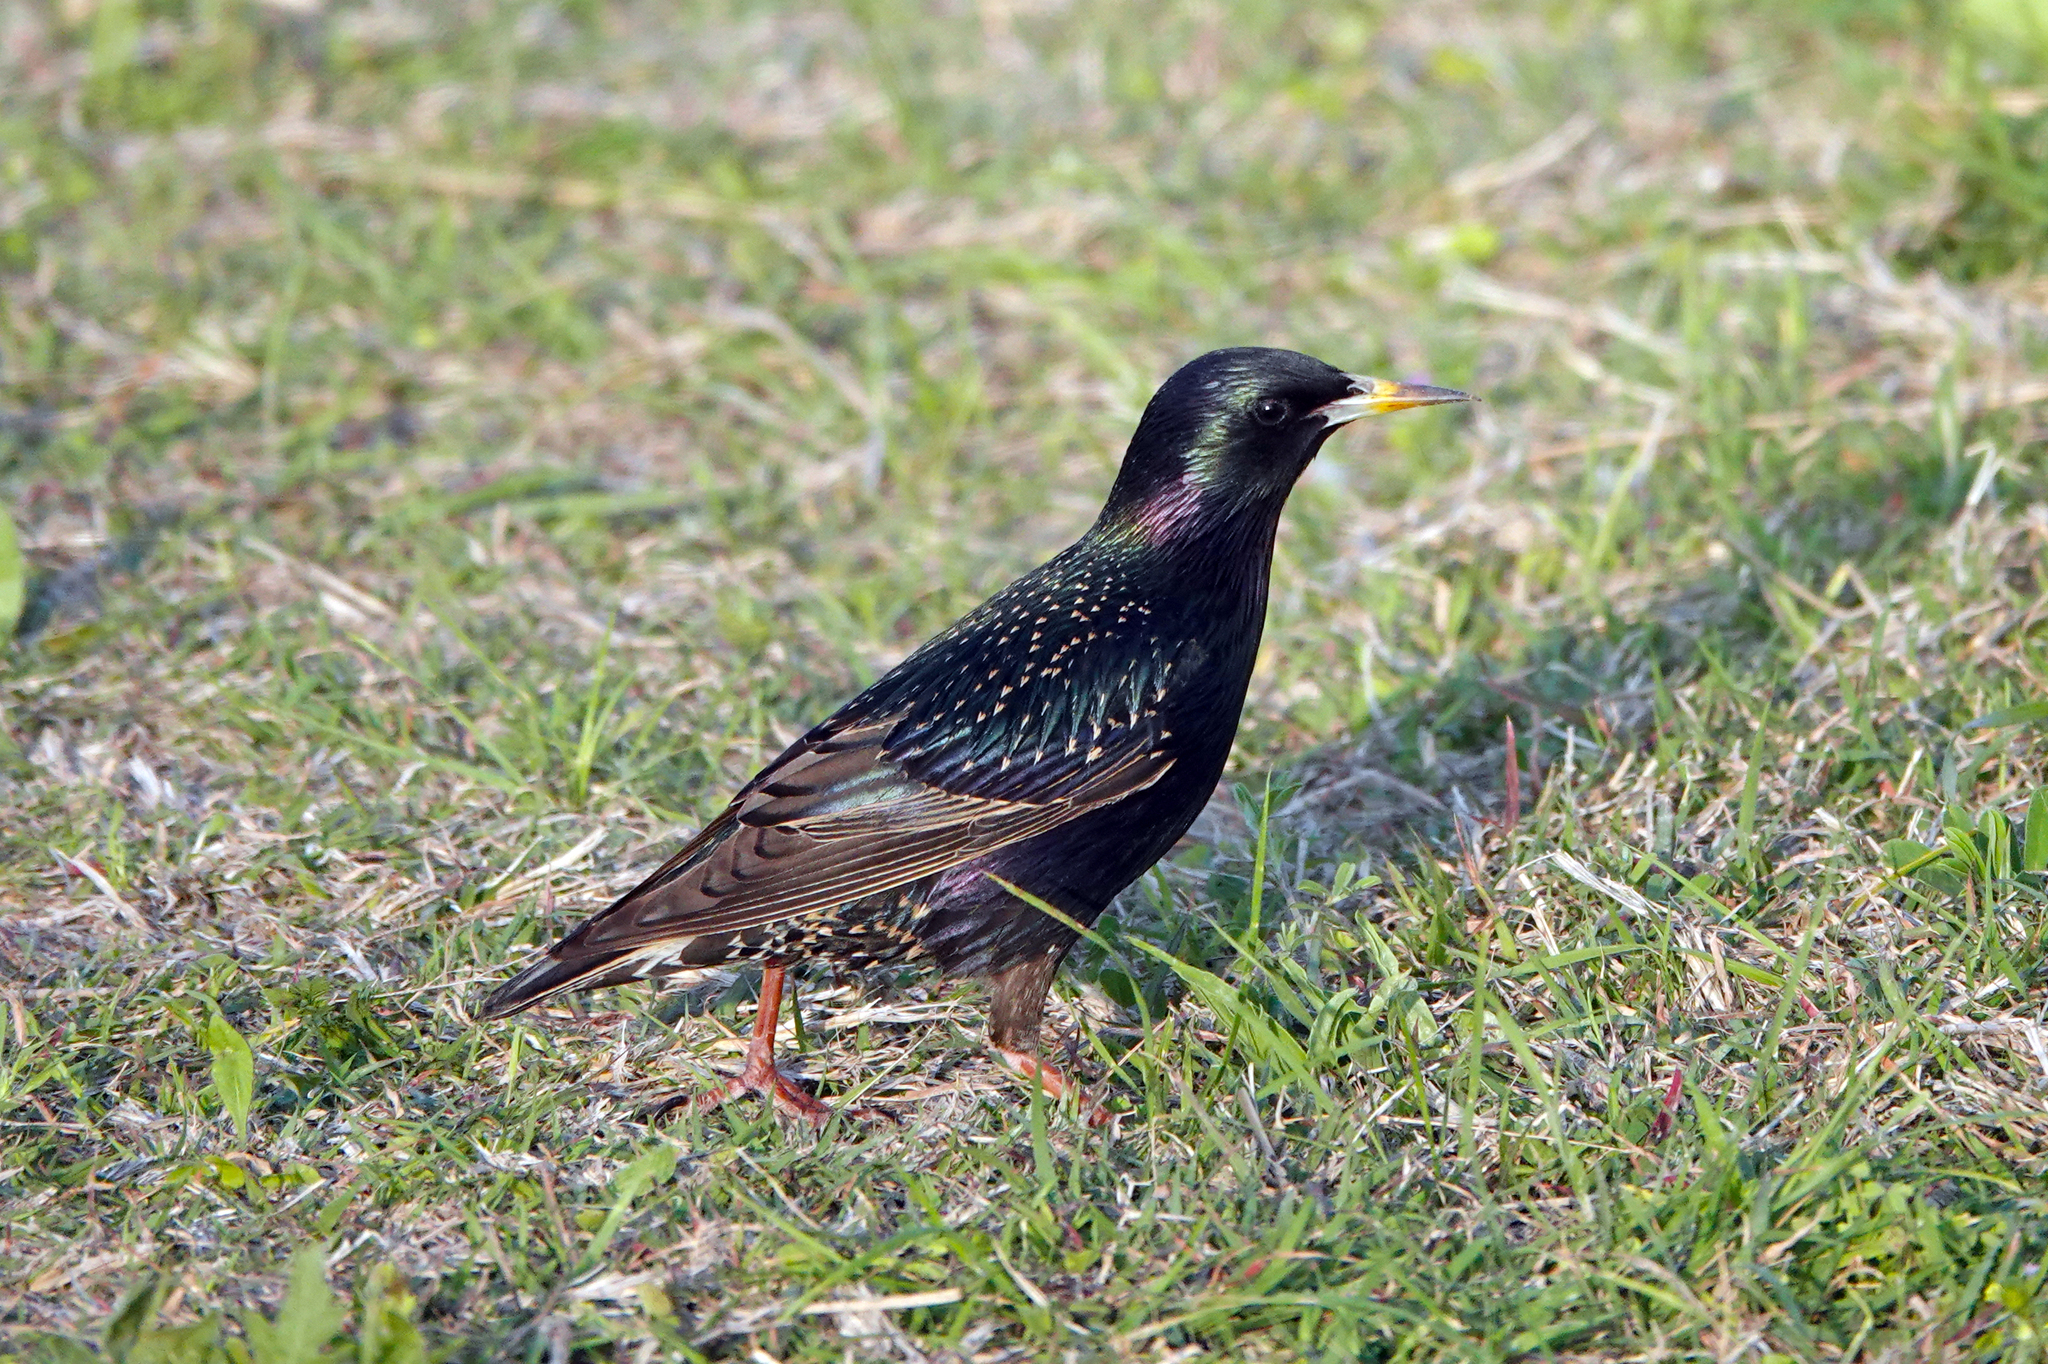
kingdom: Animalia
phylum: Chordata
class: Aves
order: Passeriformes
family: Sturnidae
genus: Sturnus
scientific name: Sturnus vulgaris
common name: Common starling
